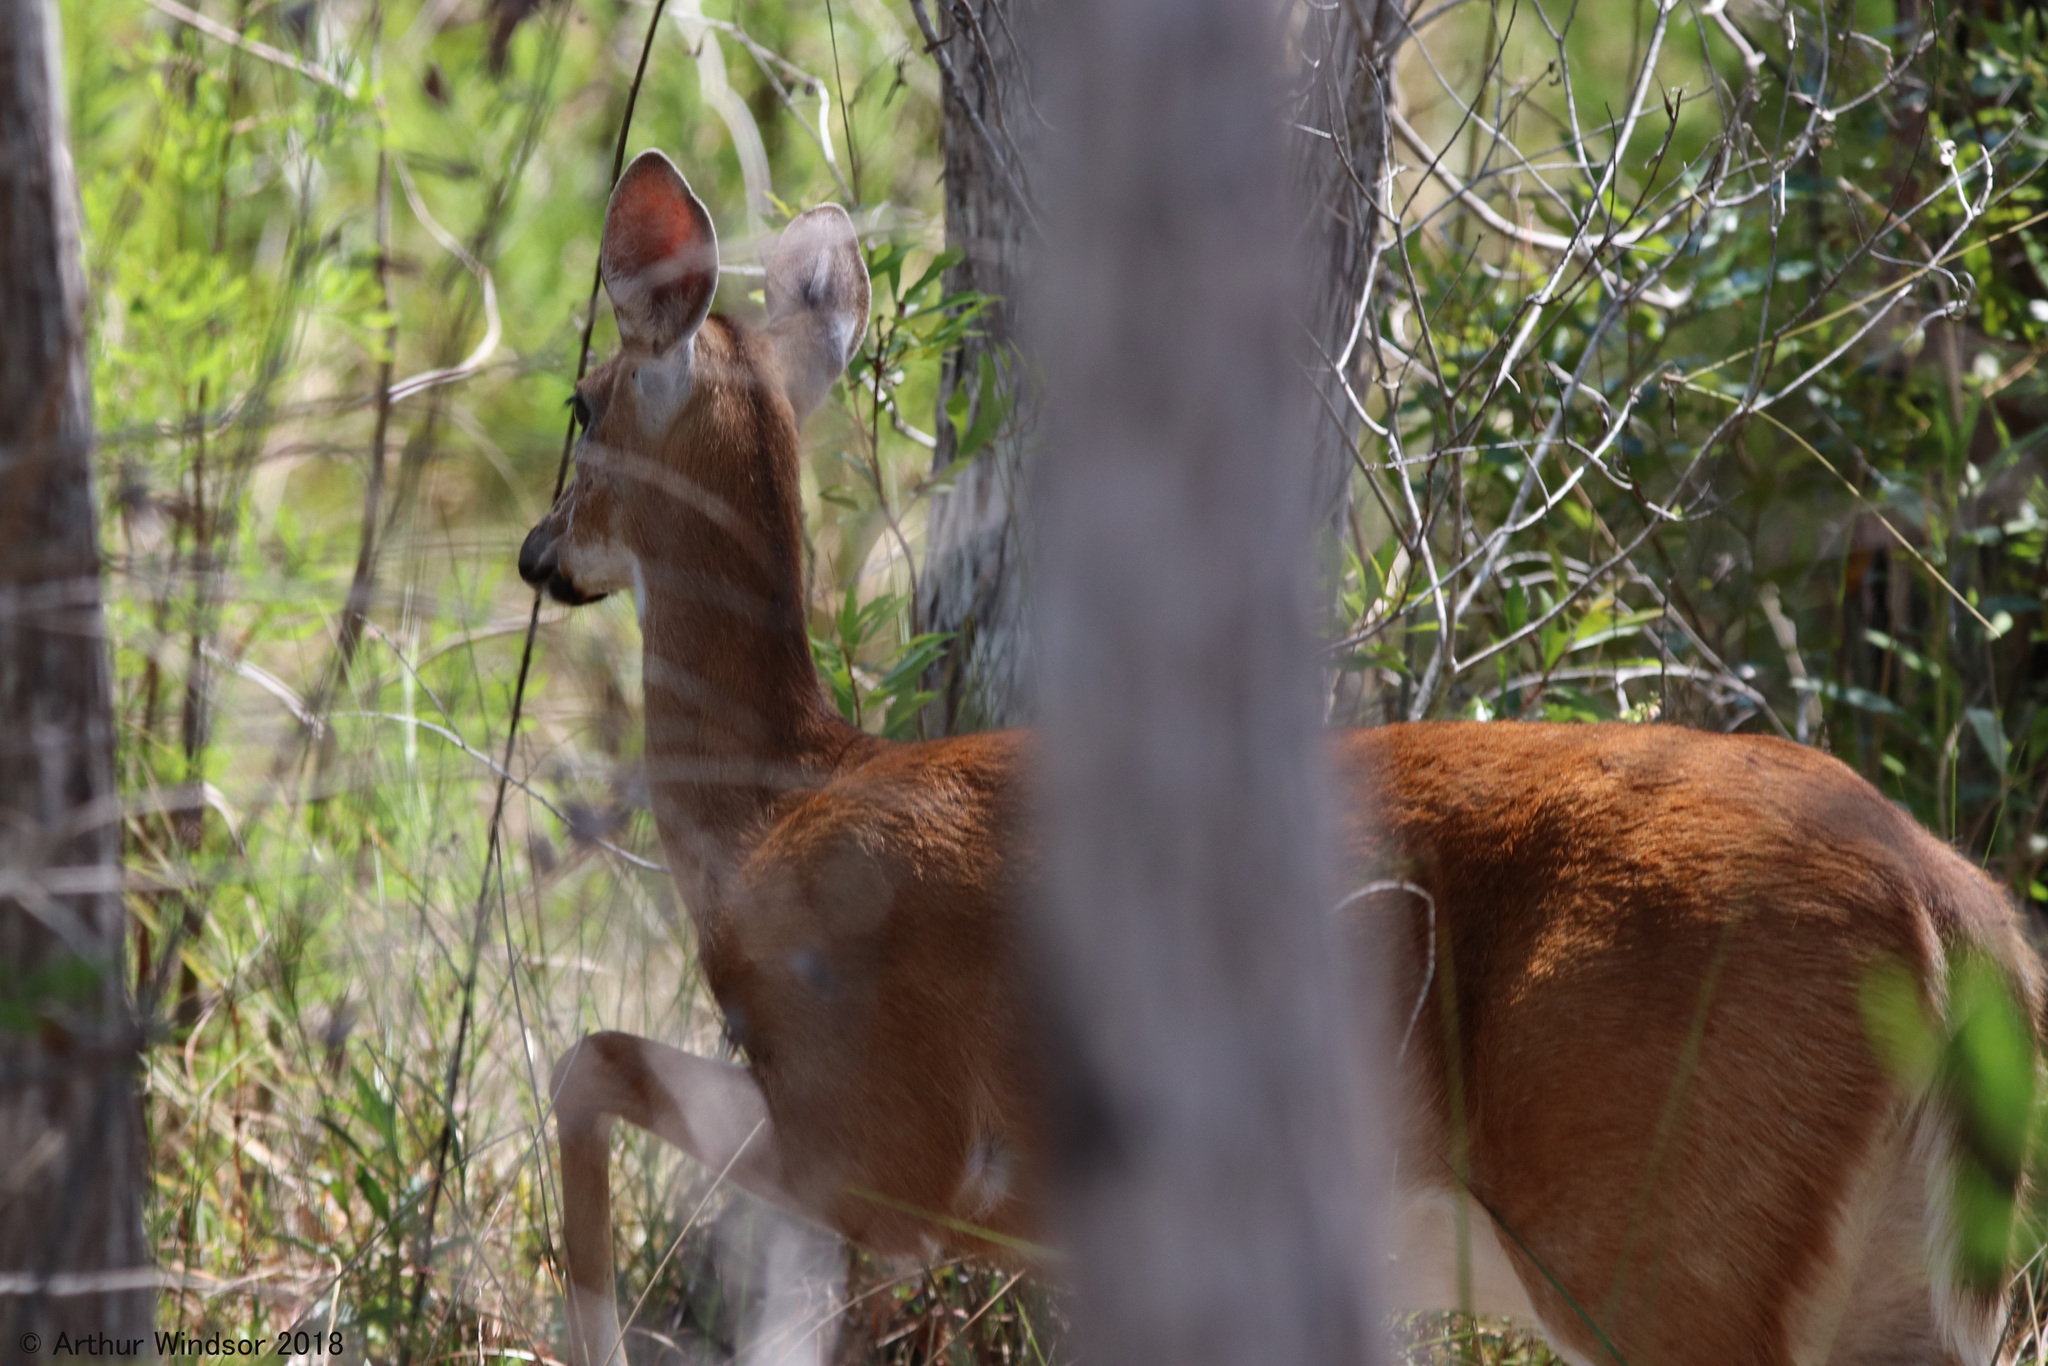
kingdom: Animalia
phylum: Chordata
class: Mammalia
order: Artiodactyla
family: Cervidae
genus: Odocoileus
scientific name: Odocoileus virginianus
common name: White-tailed deer
